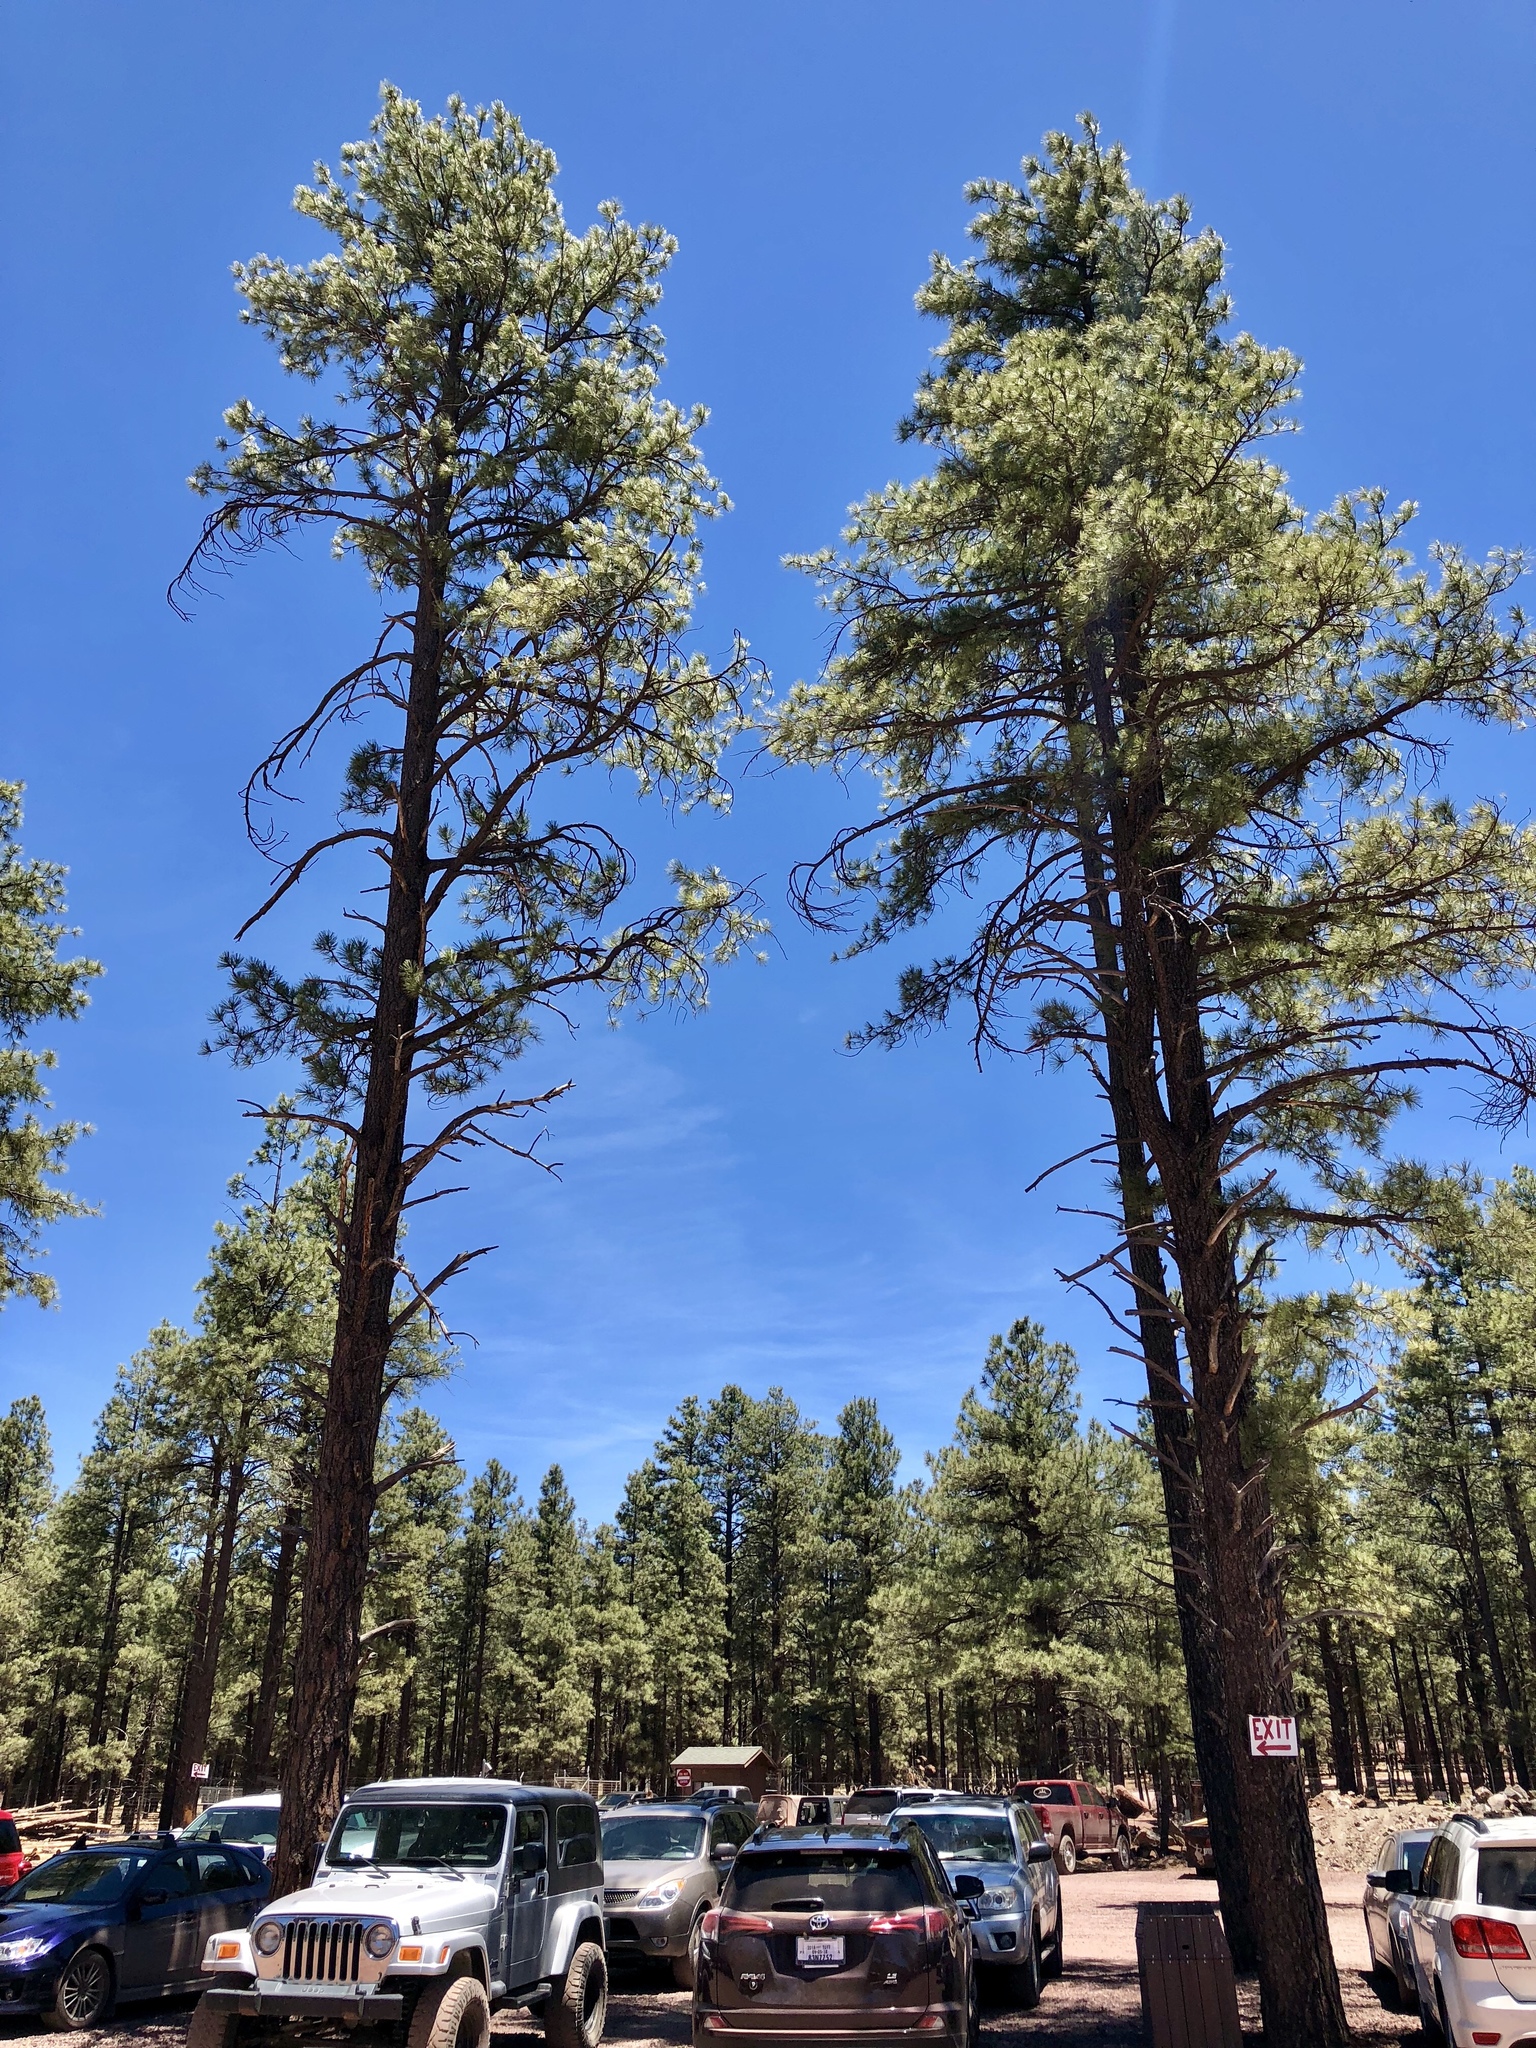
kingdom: Plantae
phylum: Tracheophyta
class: Pinopsida
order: Pinales
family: Pinaceae
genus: Pinus
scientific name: Pinus ponderosa
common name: Western yellow-pine
